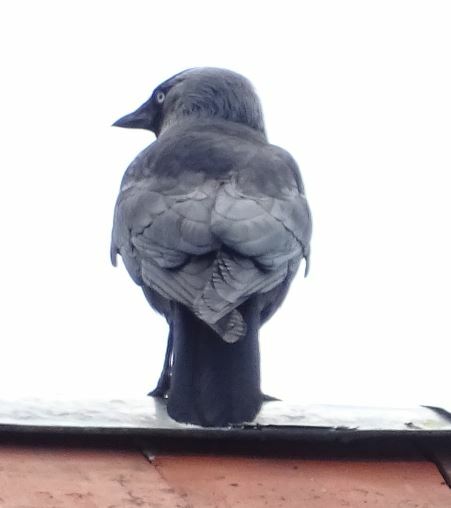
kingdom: Animalia
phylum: Chordata
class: Aves
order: Passeriformes
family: Corvidae
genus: Coloeus
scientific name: Coloeus monedula
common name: Western jackdaw
